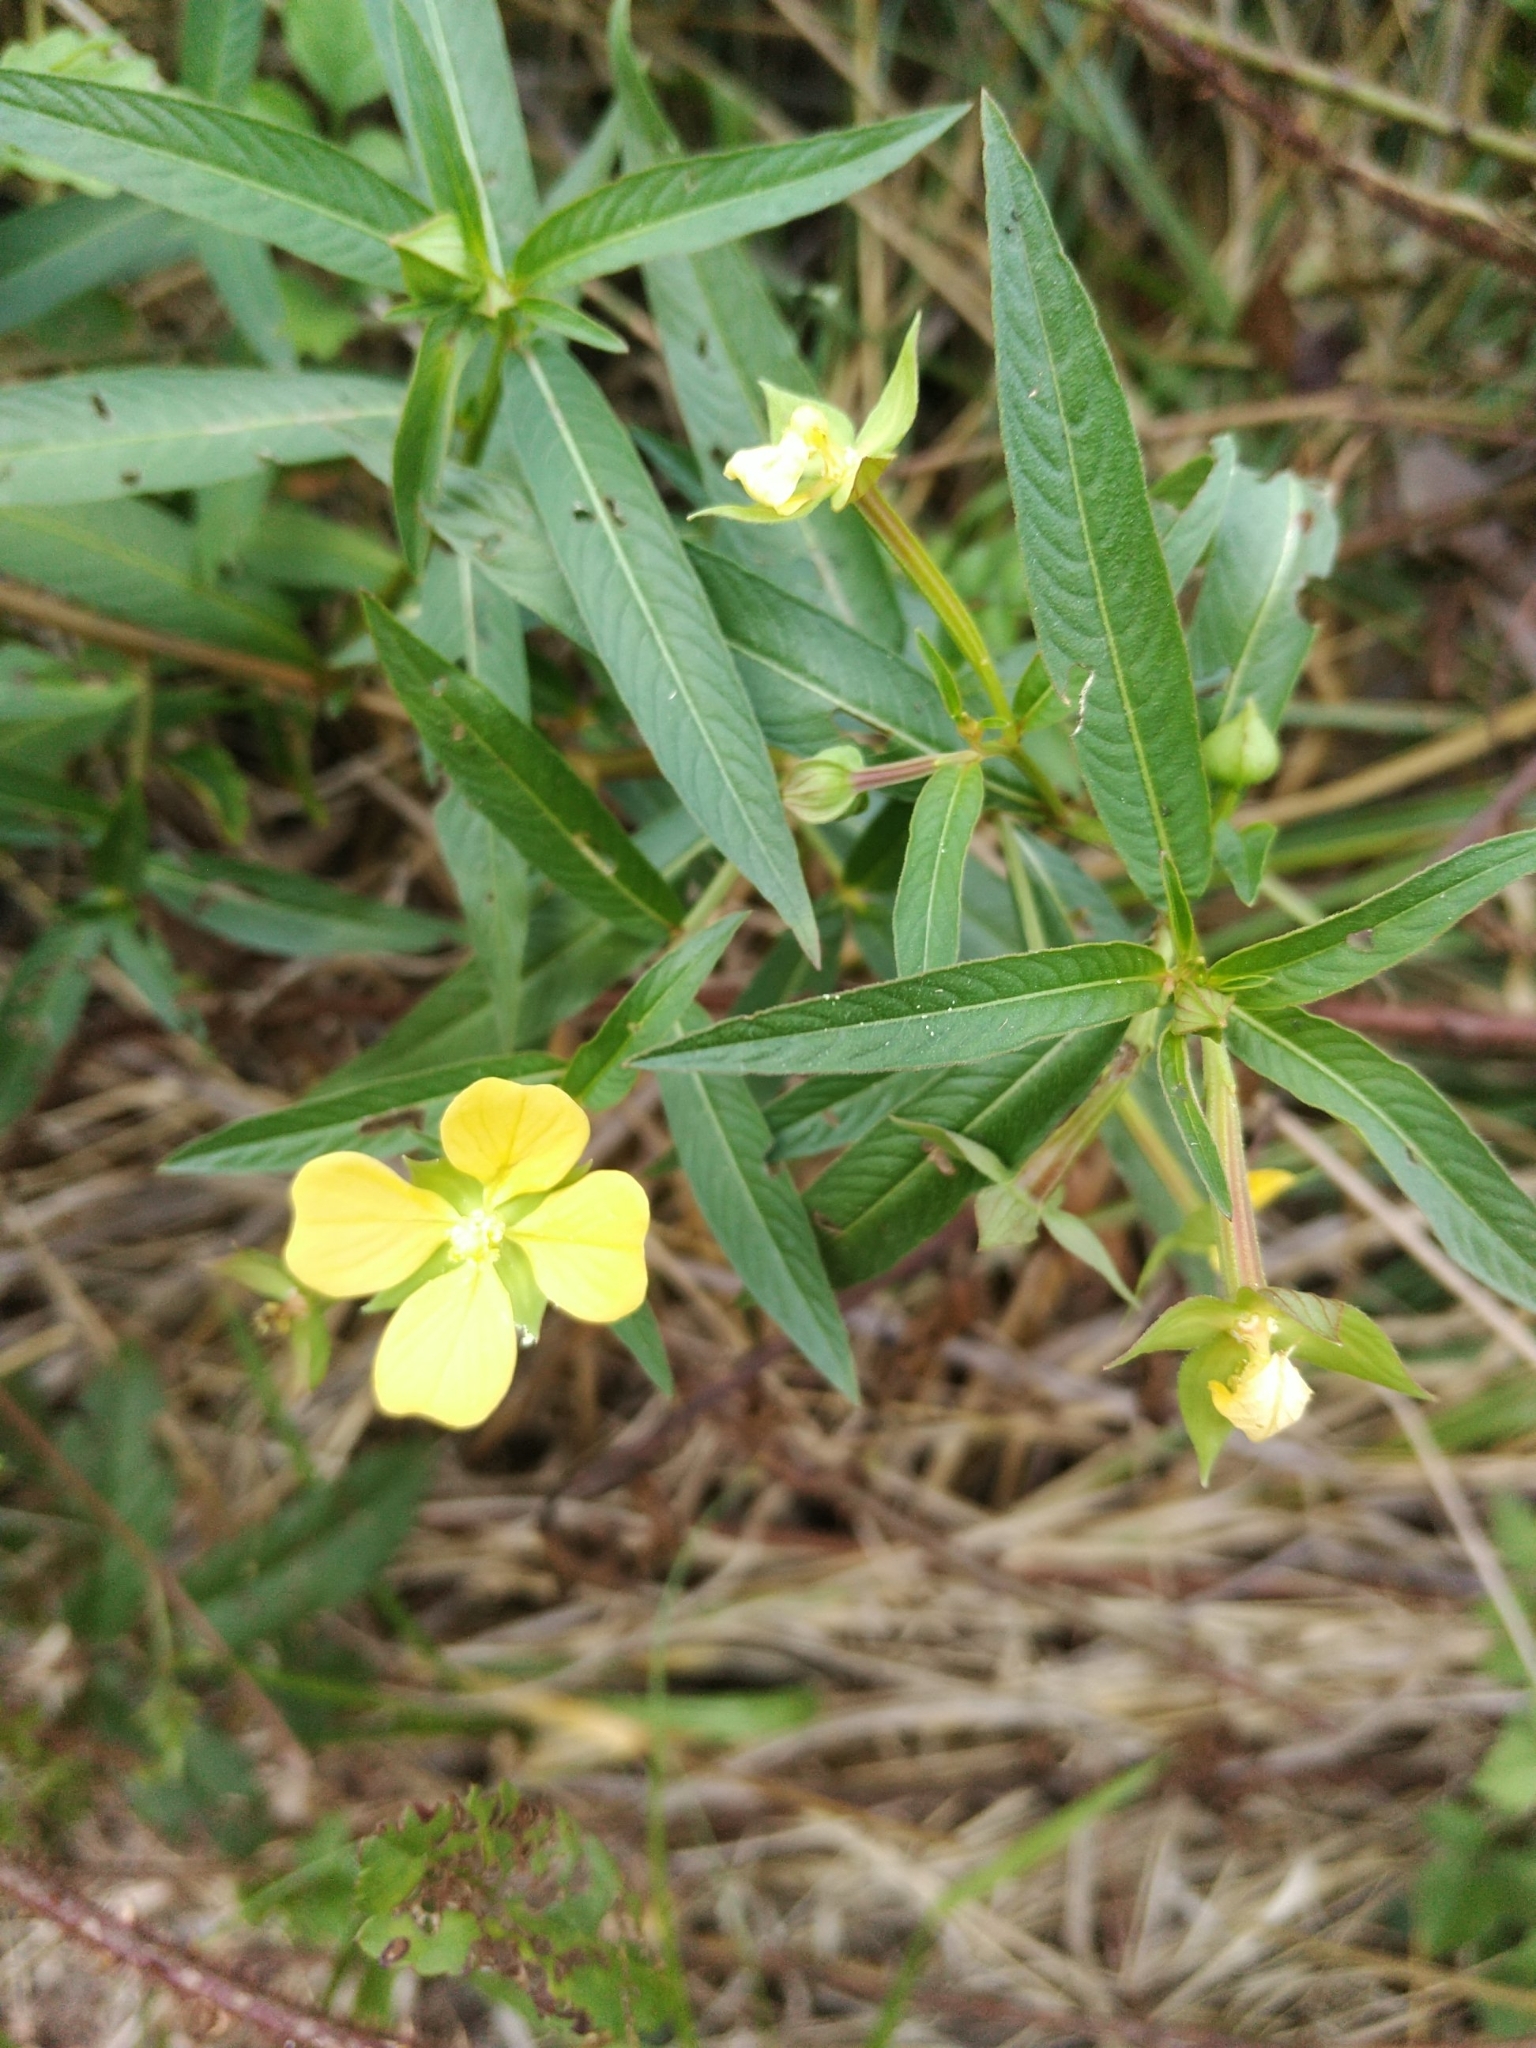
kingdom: Plantae
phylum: Tracheophyta
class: Magnoliopsida
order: Myrtales
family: Onagraceae
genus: Ludwigia
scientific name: Ludwigia octovalvis
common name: Water-primrose
